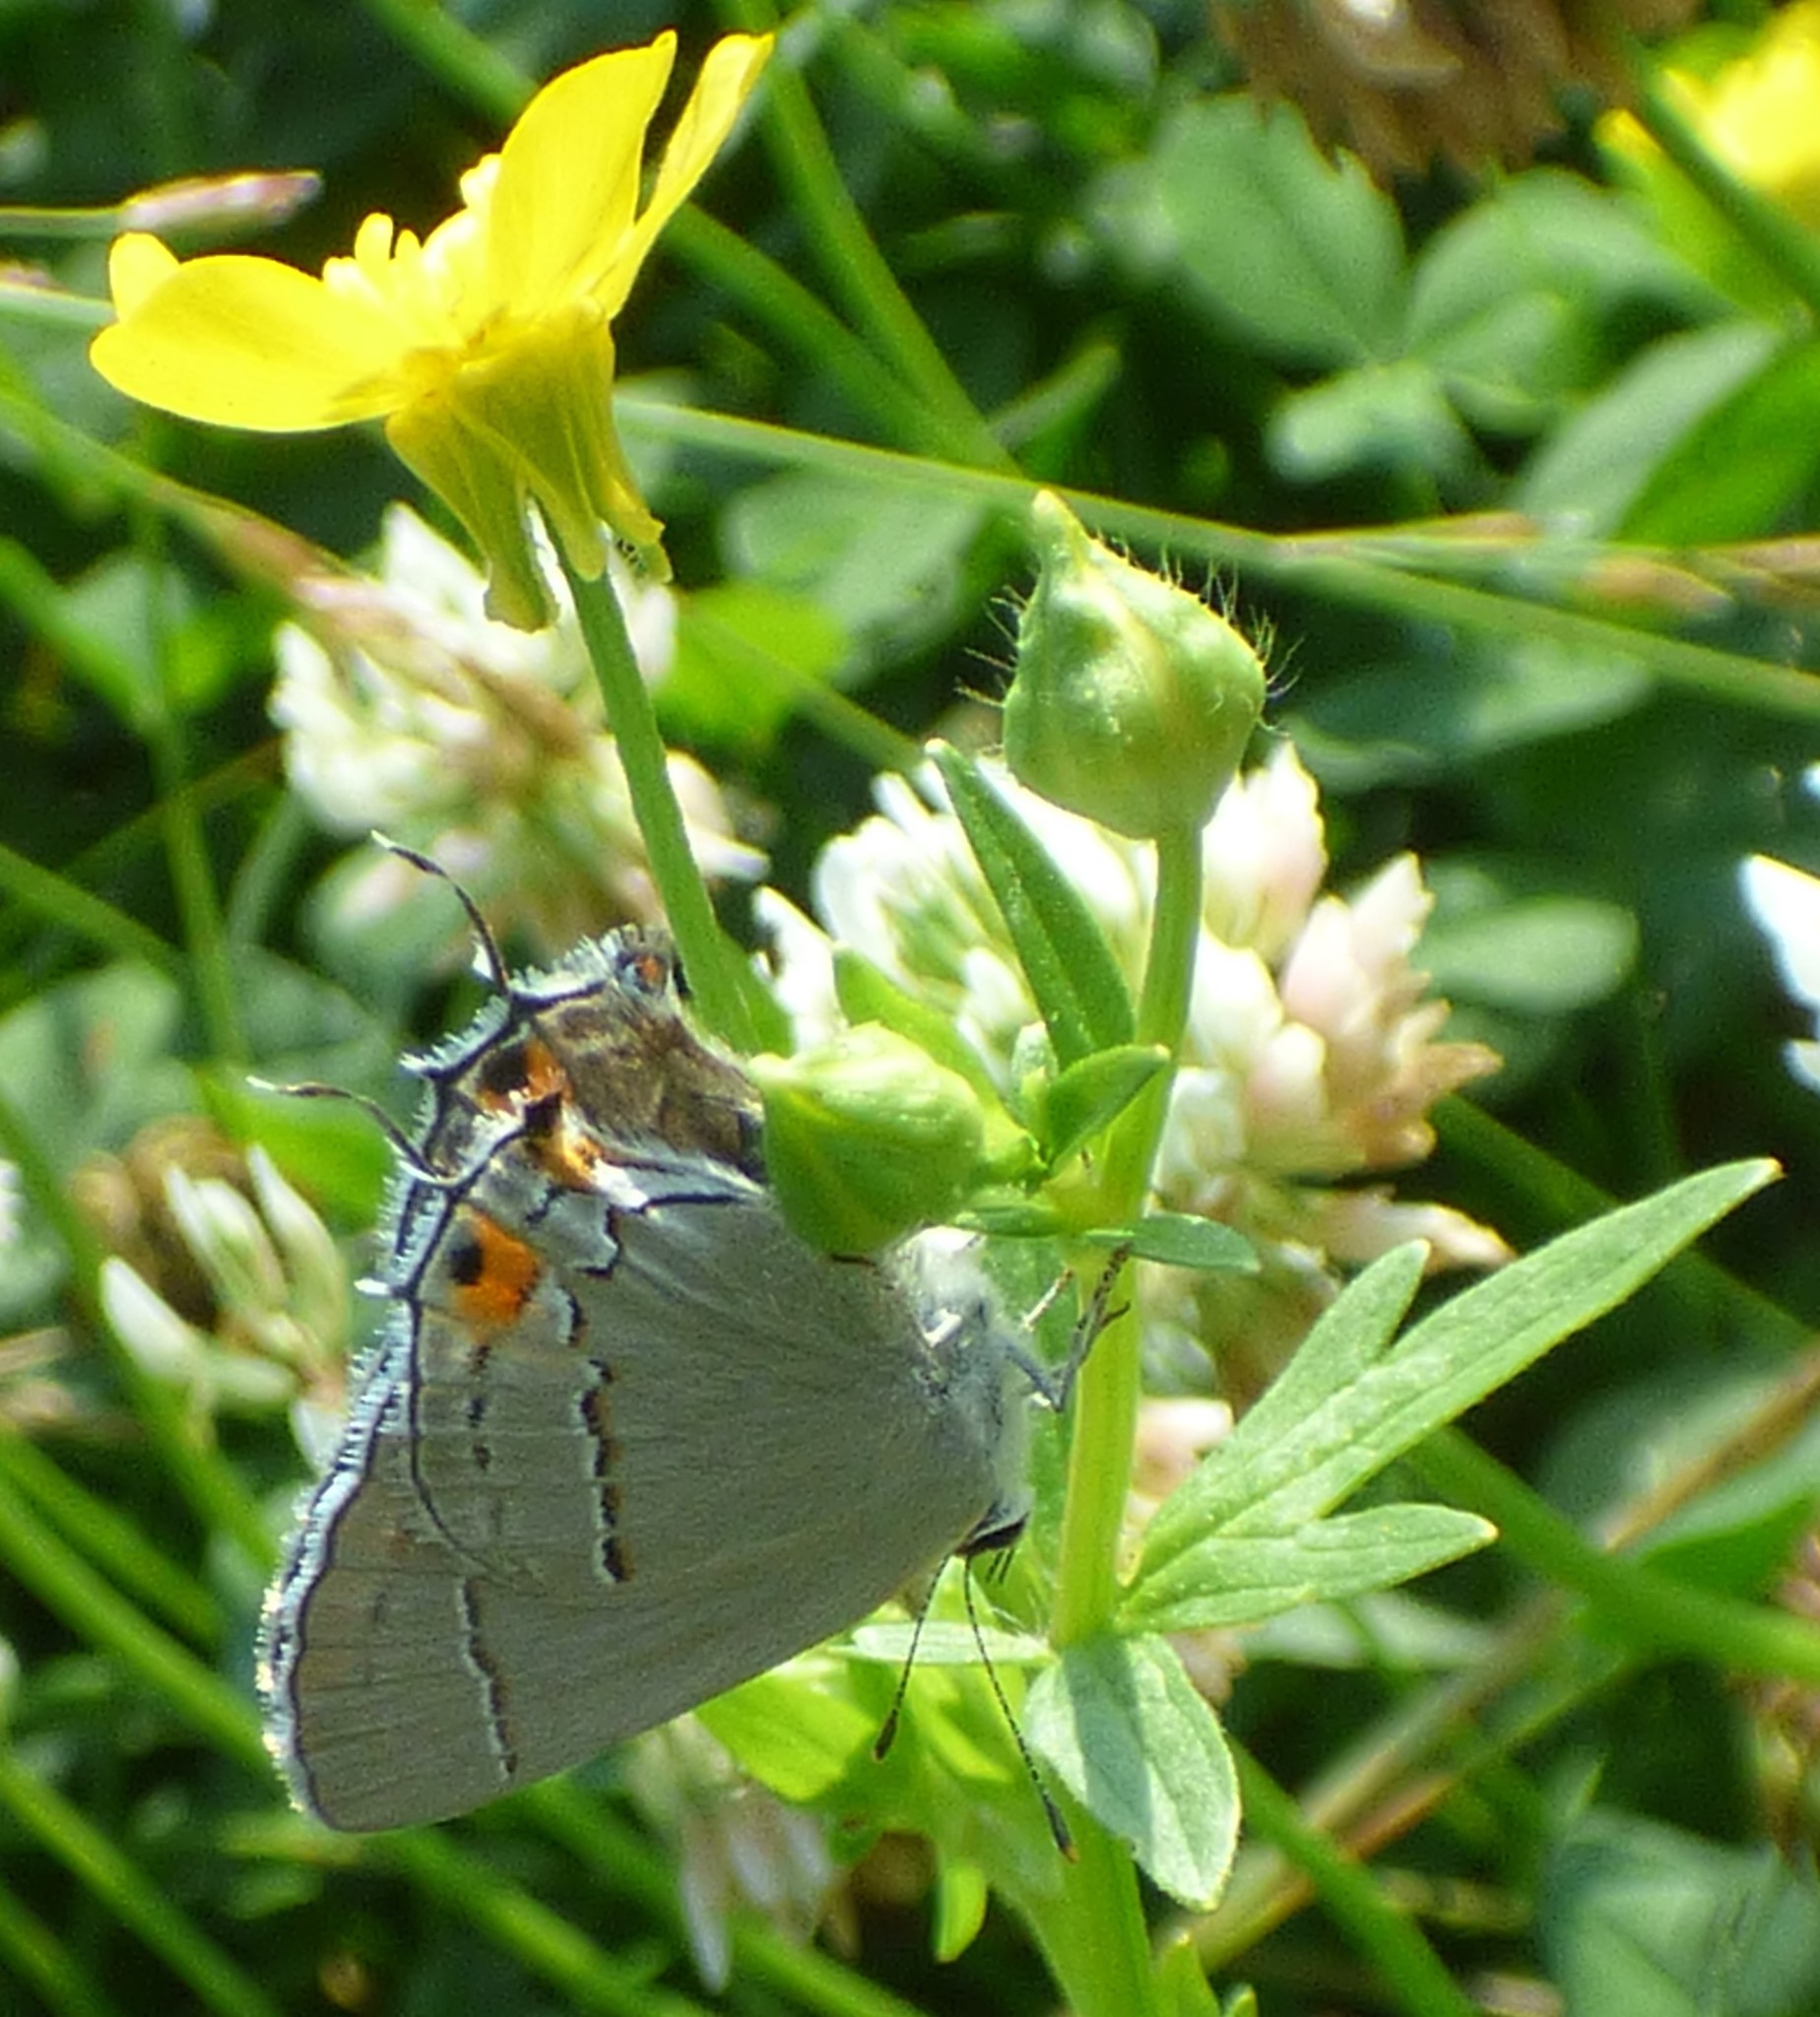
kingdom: Animalia
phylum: Arthropoda
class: Insecta
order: Lepidoptera
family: Lycaenidae
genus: Strymon
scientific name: Strymon melinus
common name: Gray hairstreak
